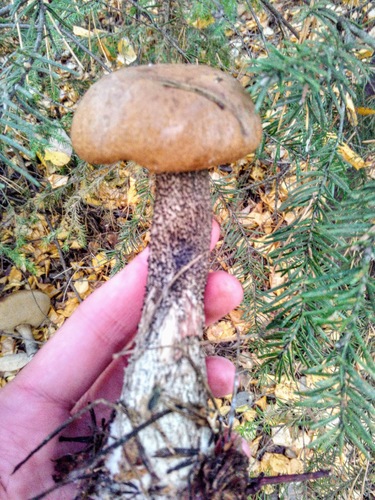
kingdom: Fungi
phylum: Basidiomycota
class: Agaricomycetes
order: Boletales
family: Boletaceae
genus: Leccinum
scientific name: Leccinum
